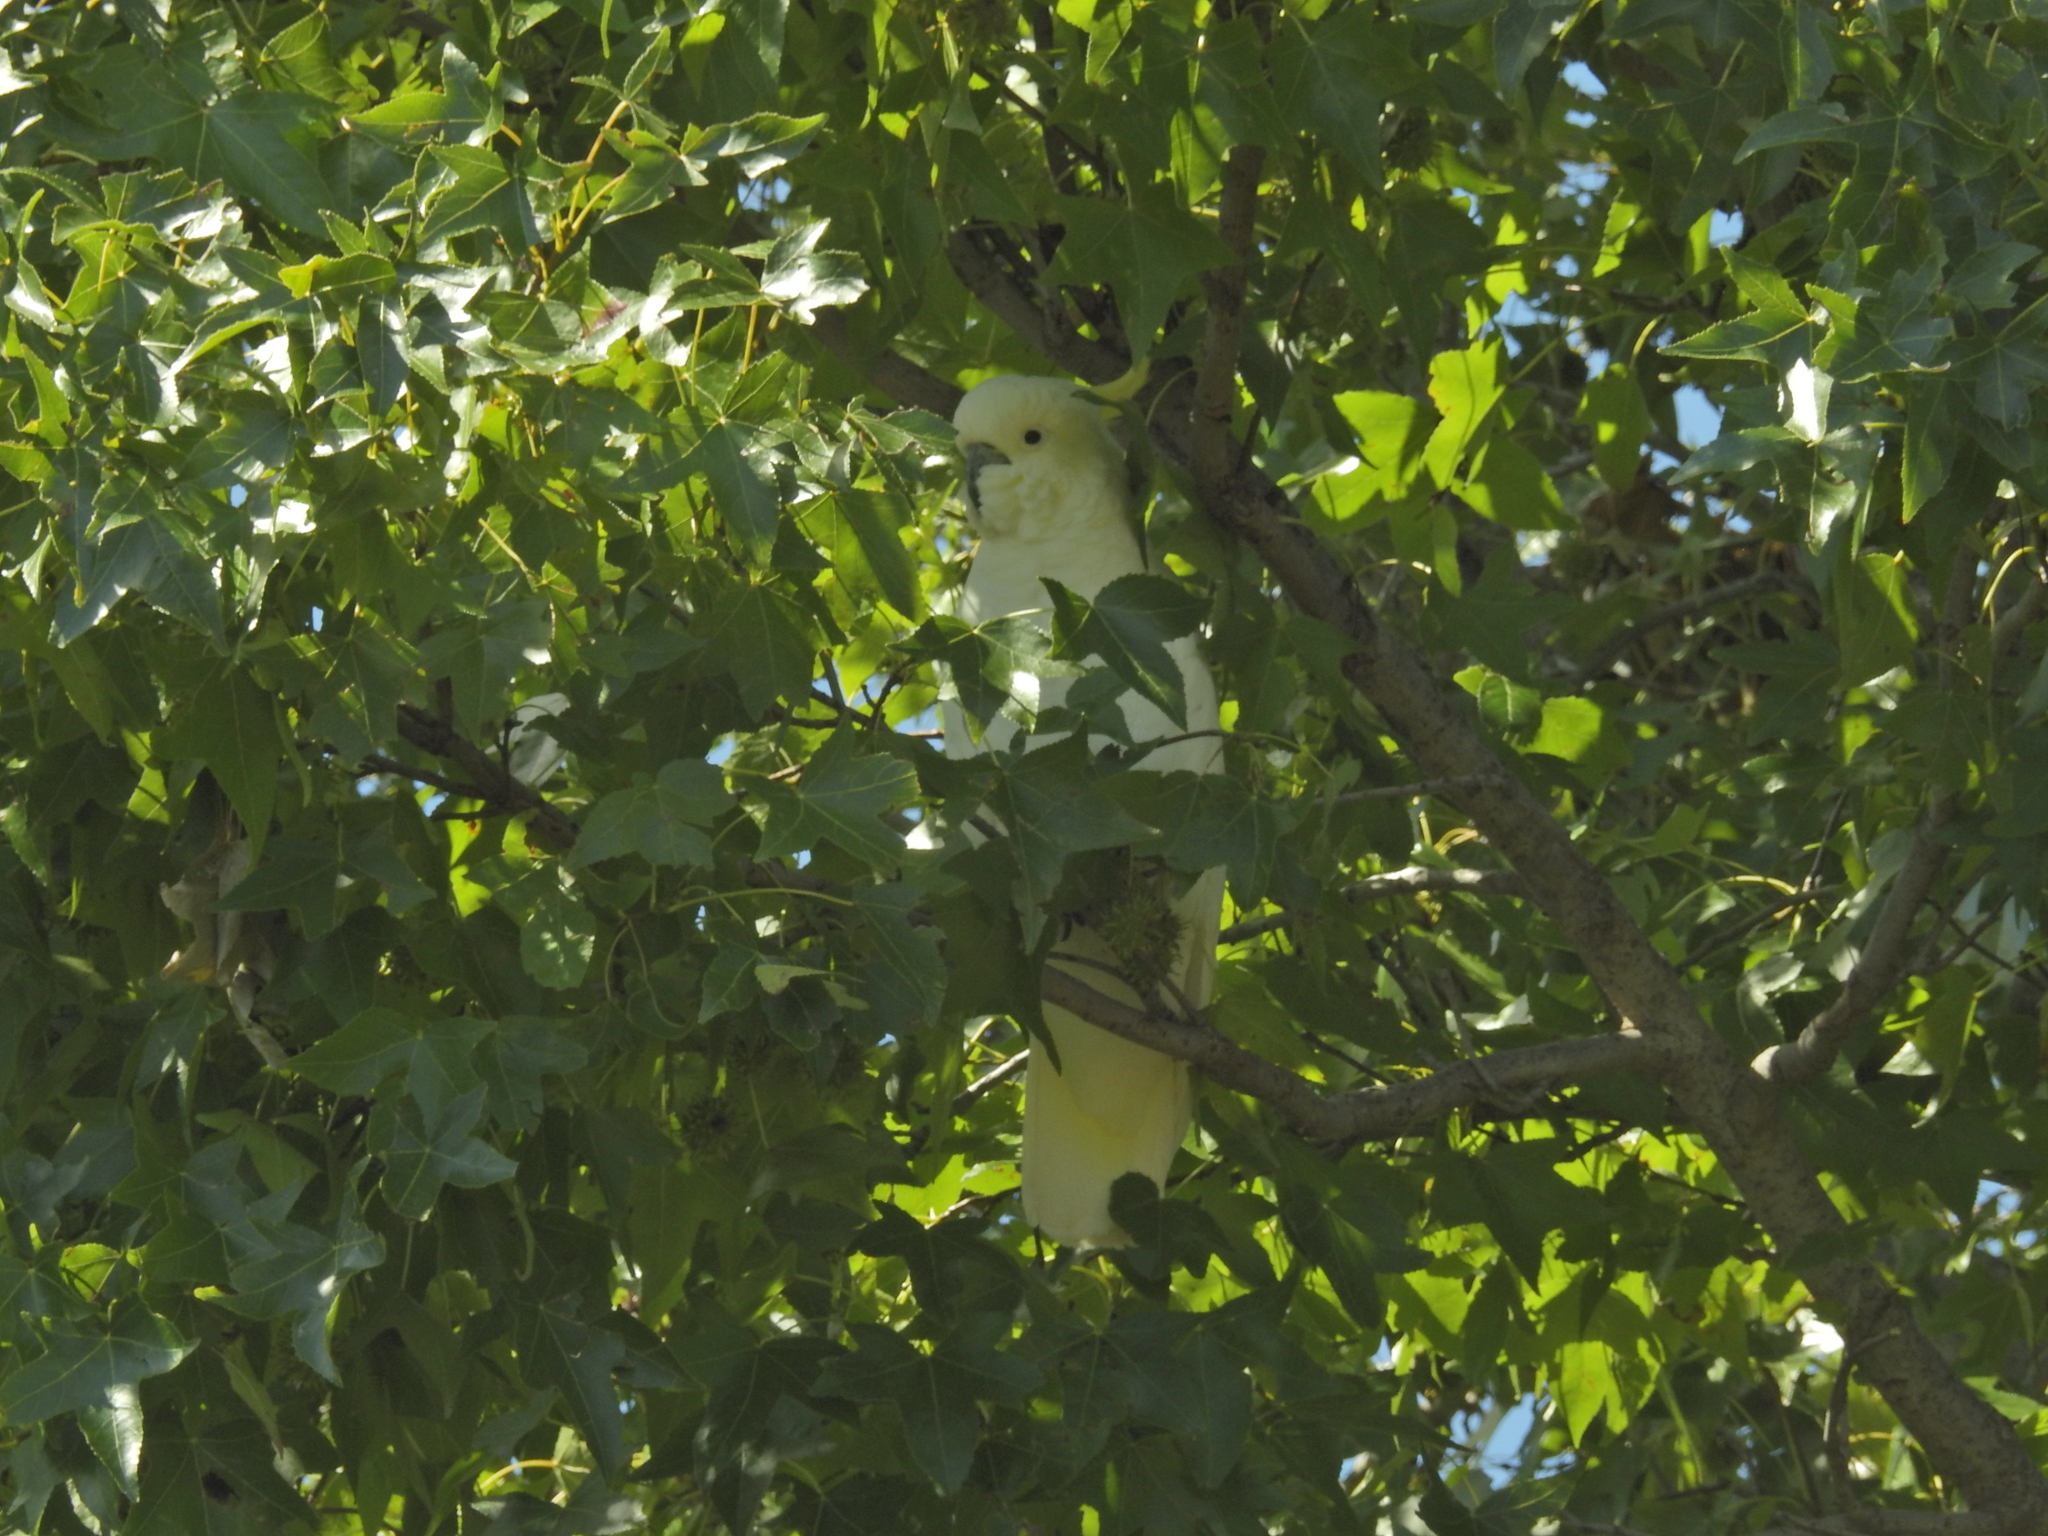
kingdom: Animalia
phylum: Chordata
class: Aves
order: Psittaciformes
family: Psittacidae
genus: Cacatua
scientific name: Cacatua galerita
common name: Sulphur-crested cockatoo
